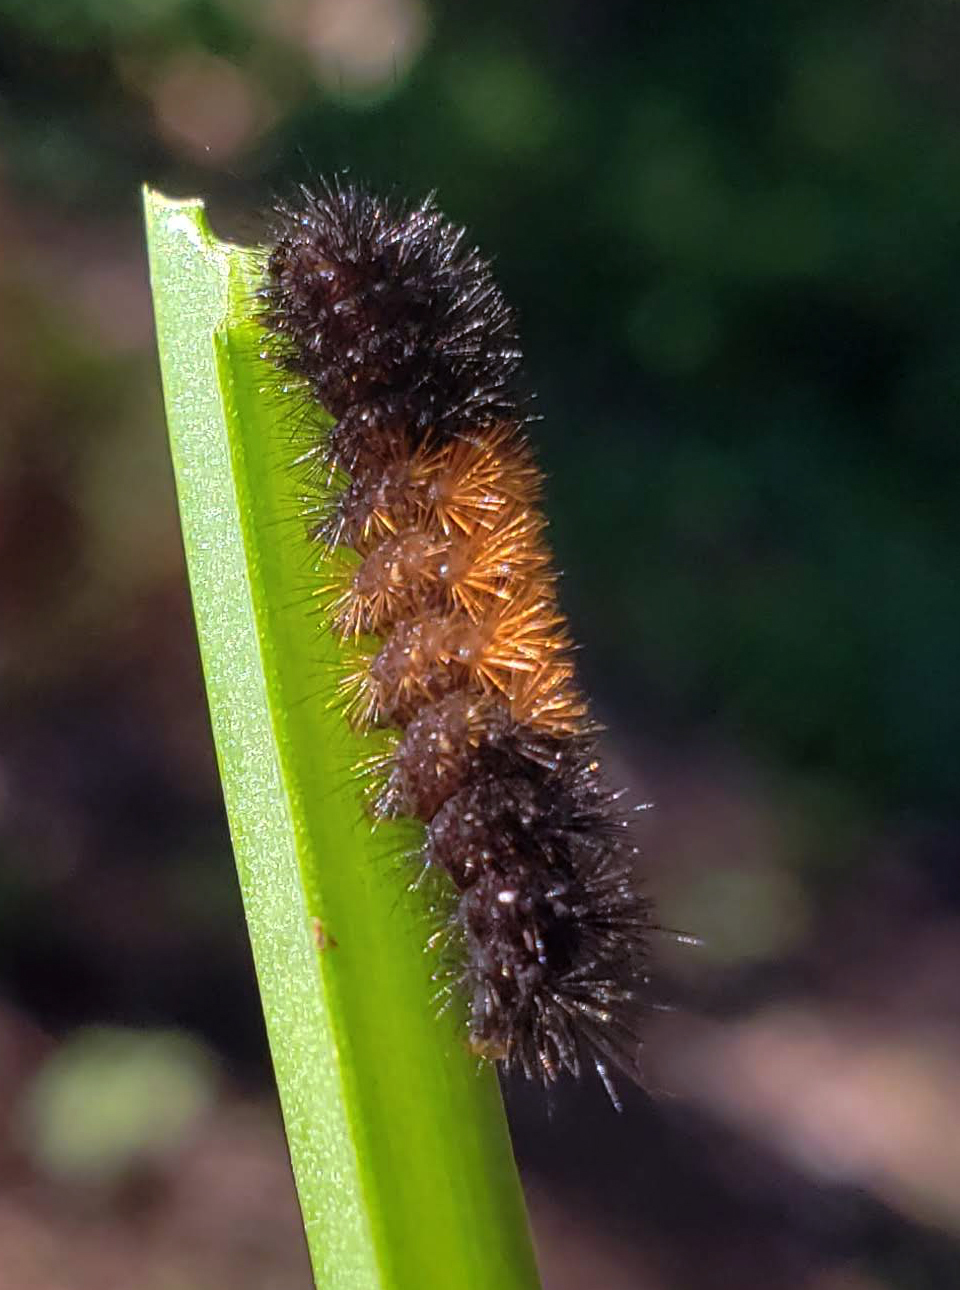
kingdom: Animalia
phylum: Arthropoda
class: Insecta
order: Lepidoptera
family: Erebidae
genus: Pyrrharctia
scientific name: Pyrrharctia isabella
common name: Isabella tiger moth
